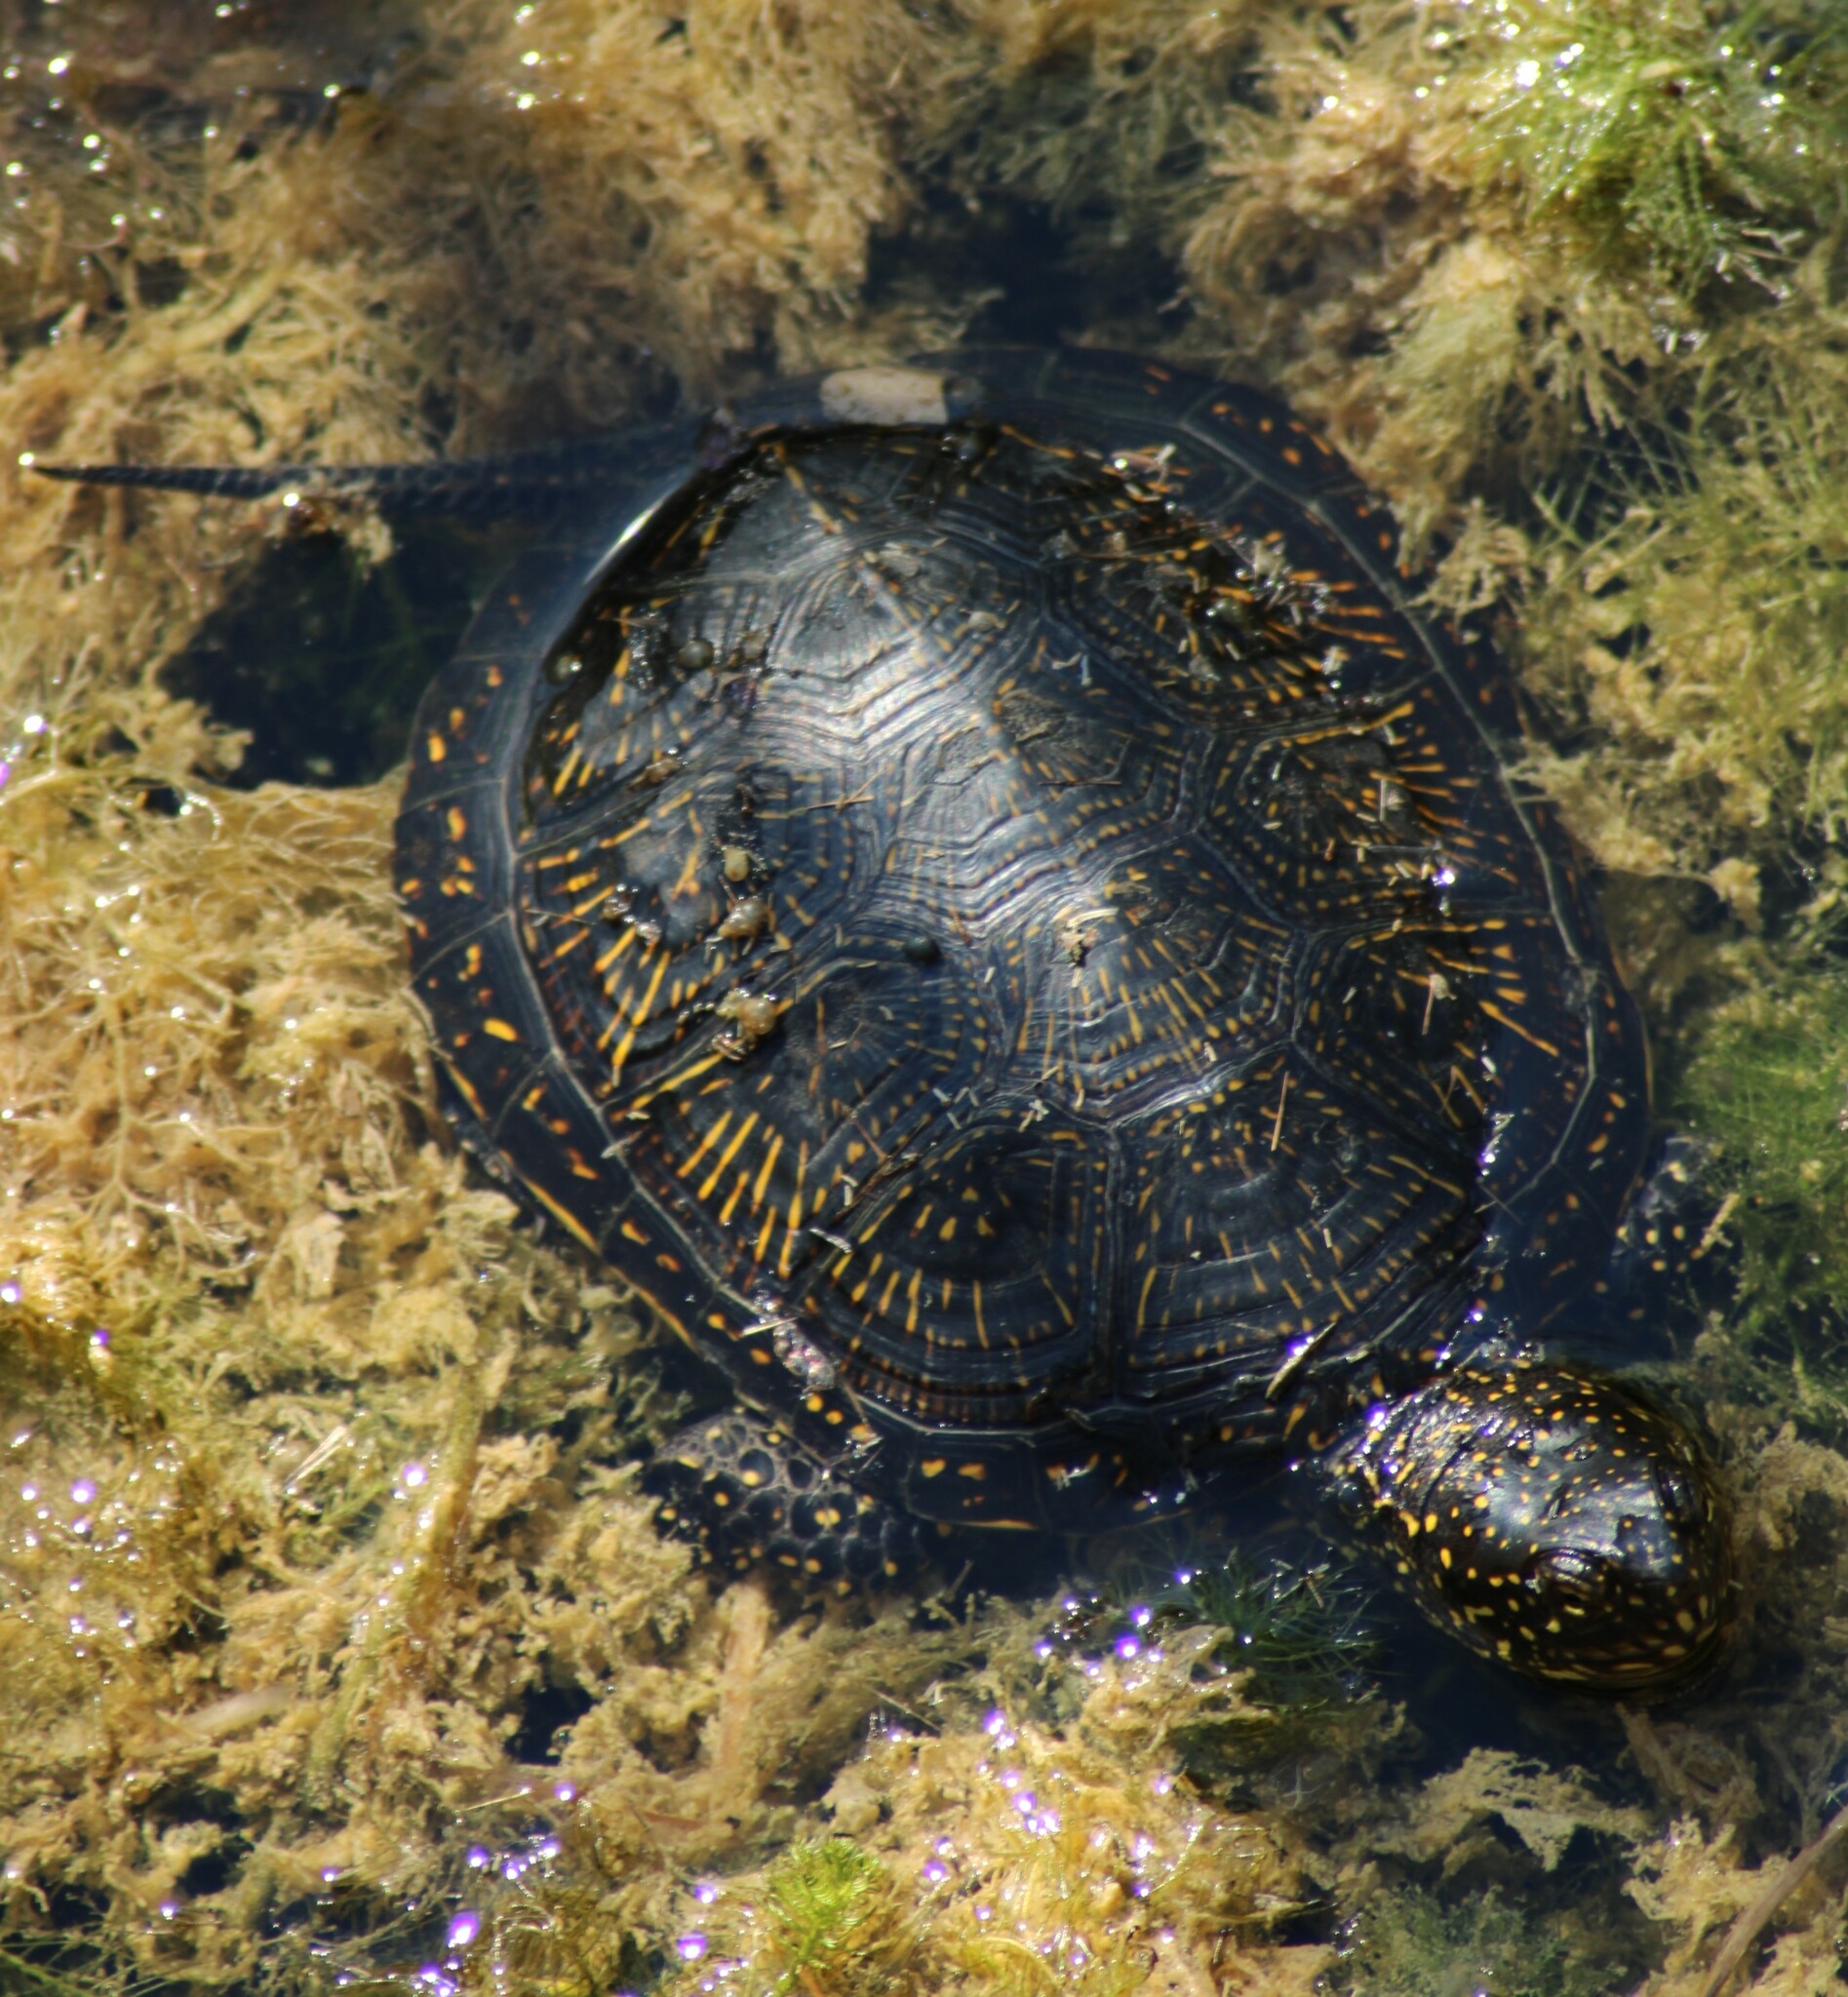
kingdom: Animalia
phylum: Chordata
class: Testudines
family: Emydidae
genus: Emys
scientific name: Emys orbicularis
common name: European pond turtle
